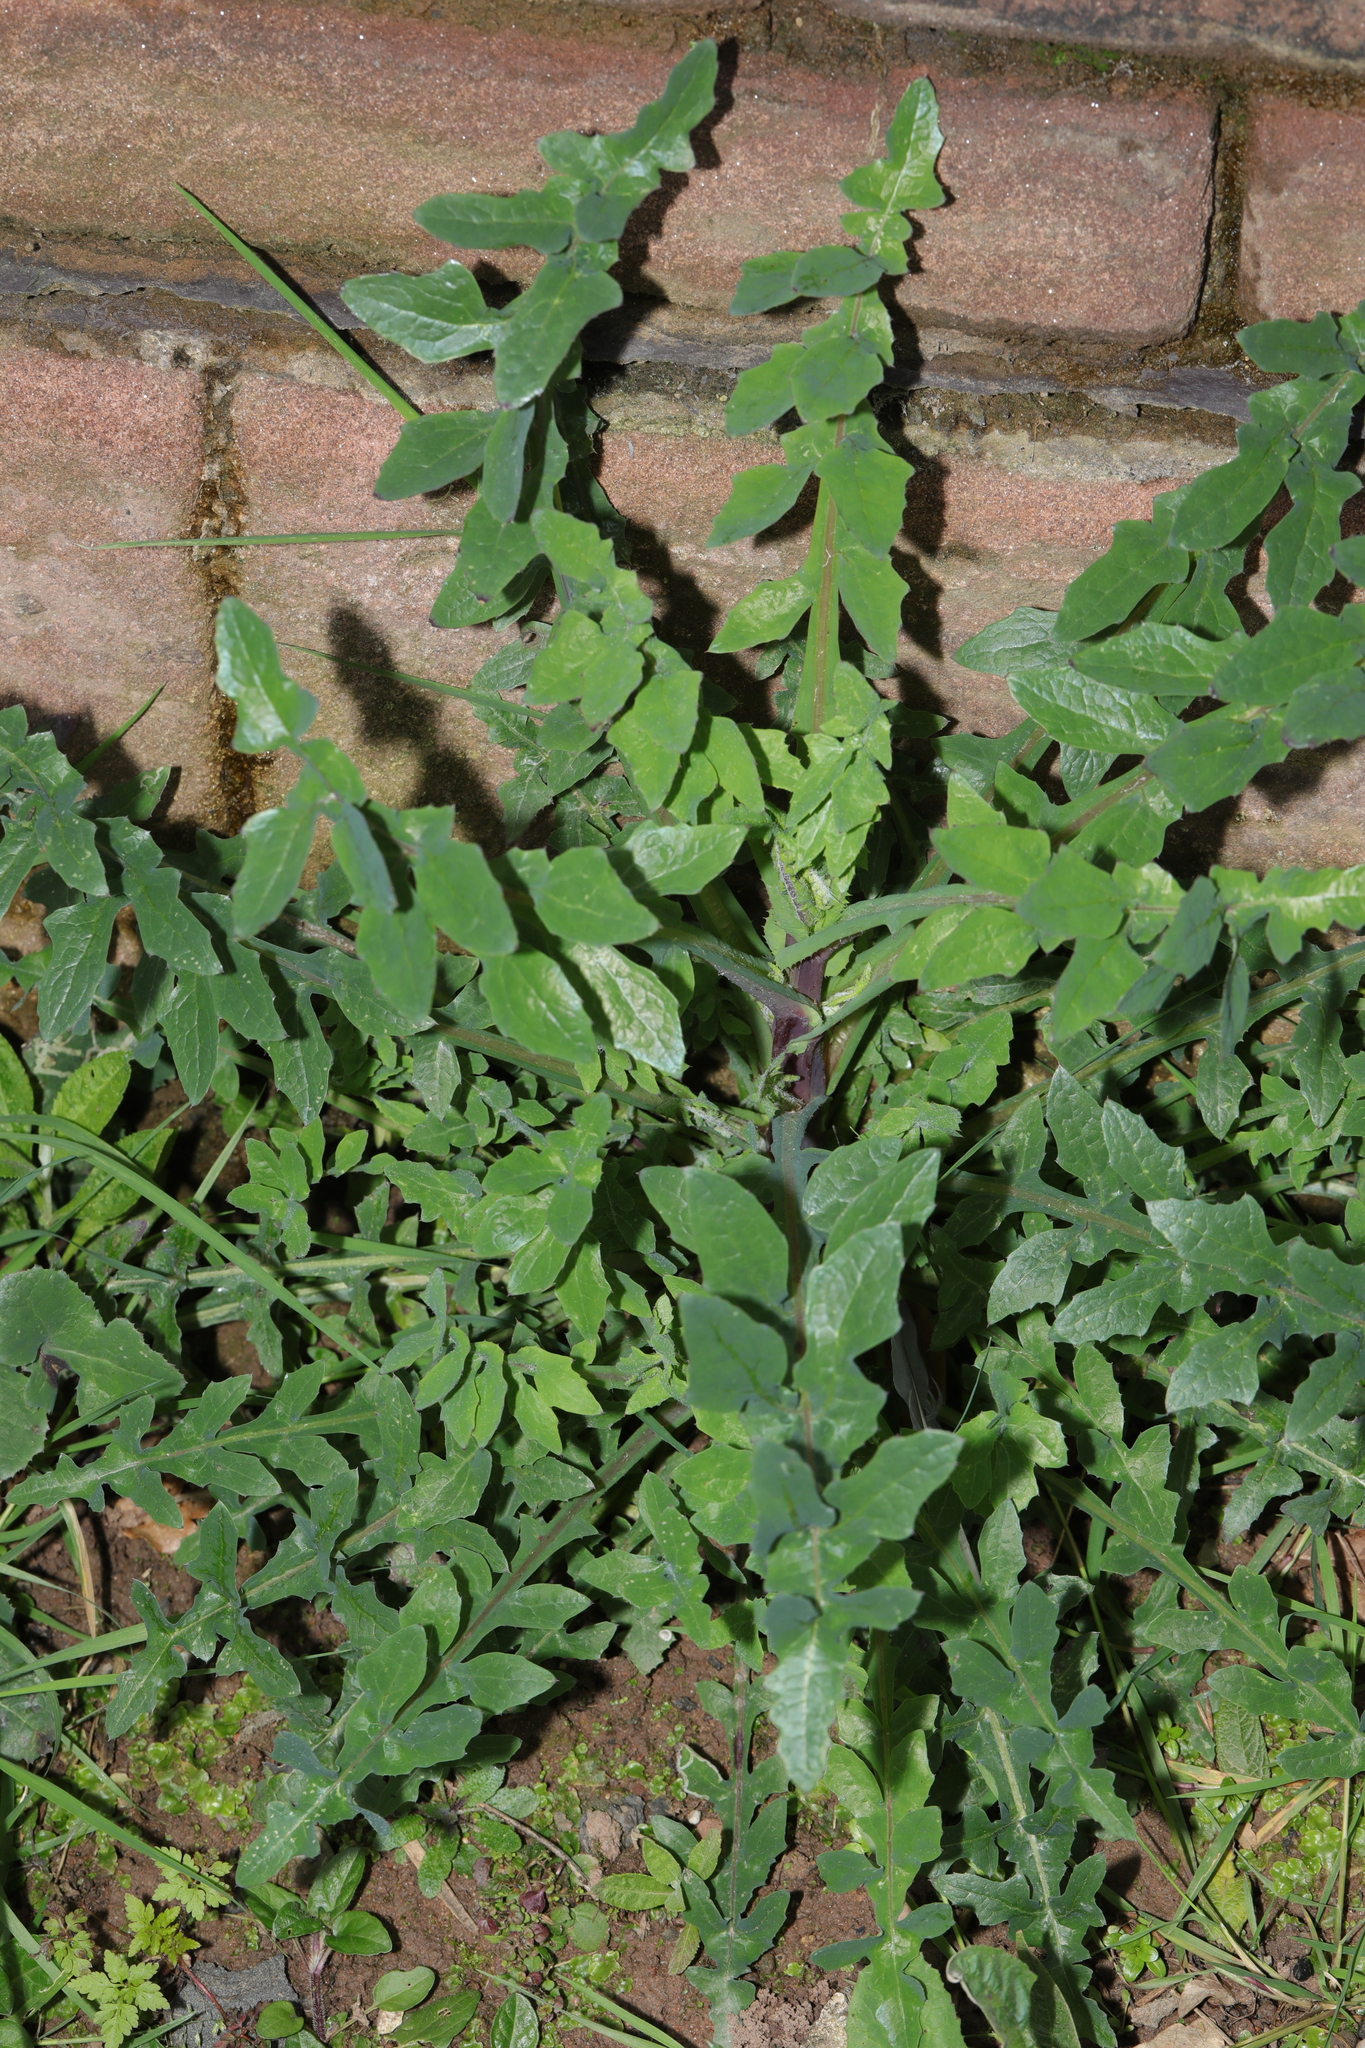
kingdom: Plantae
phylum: Tracheophyta
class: Magnoliopsida
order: Asterales
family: Asteraceae
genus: Sonchus
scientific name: Sonchus oleraceus
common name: Common sowthistle
